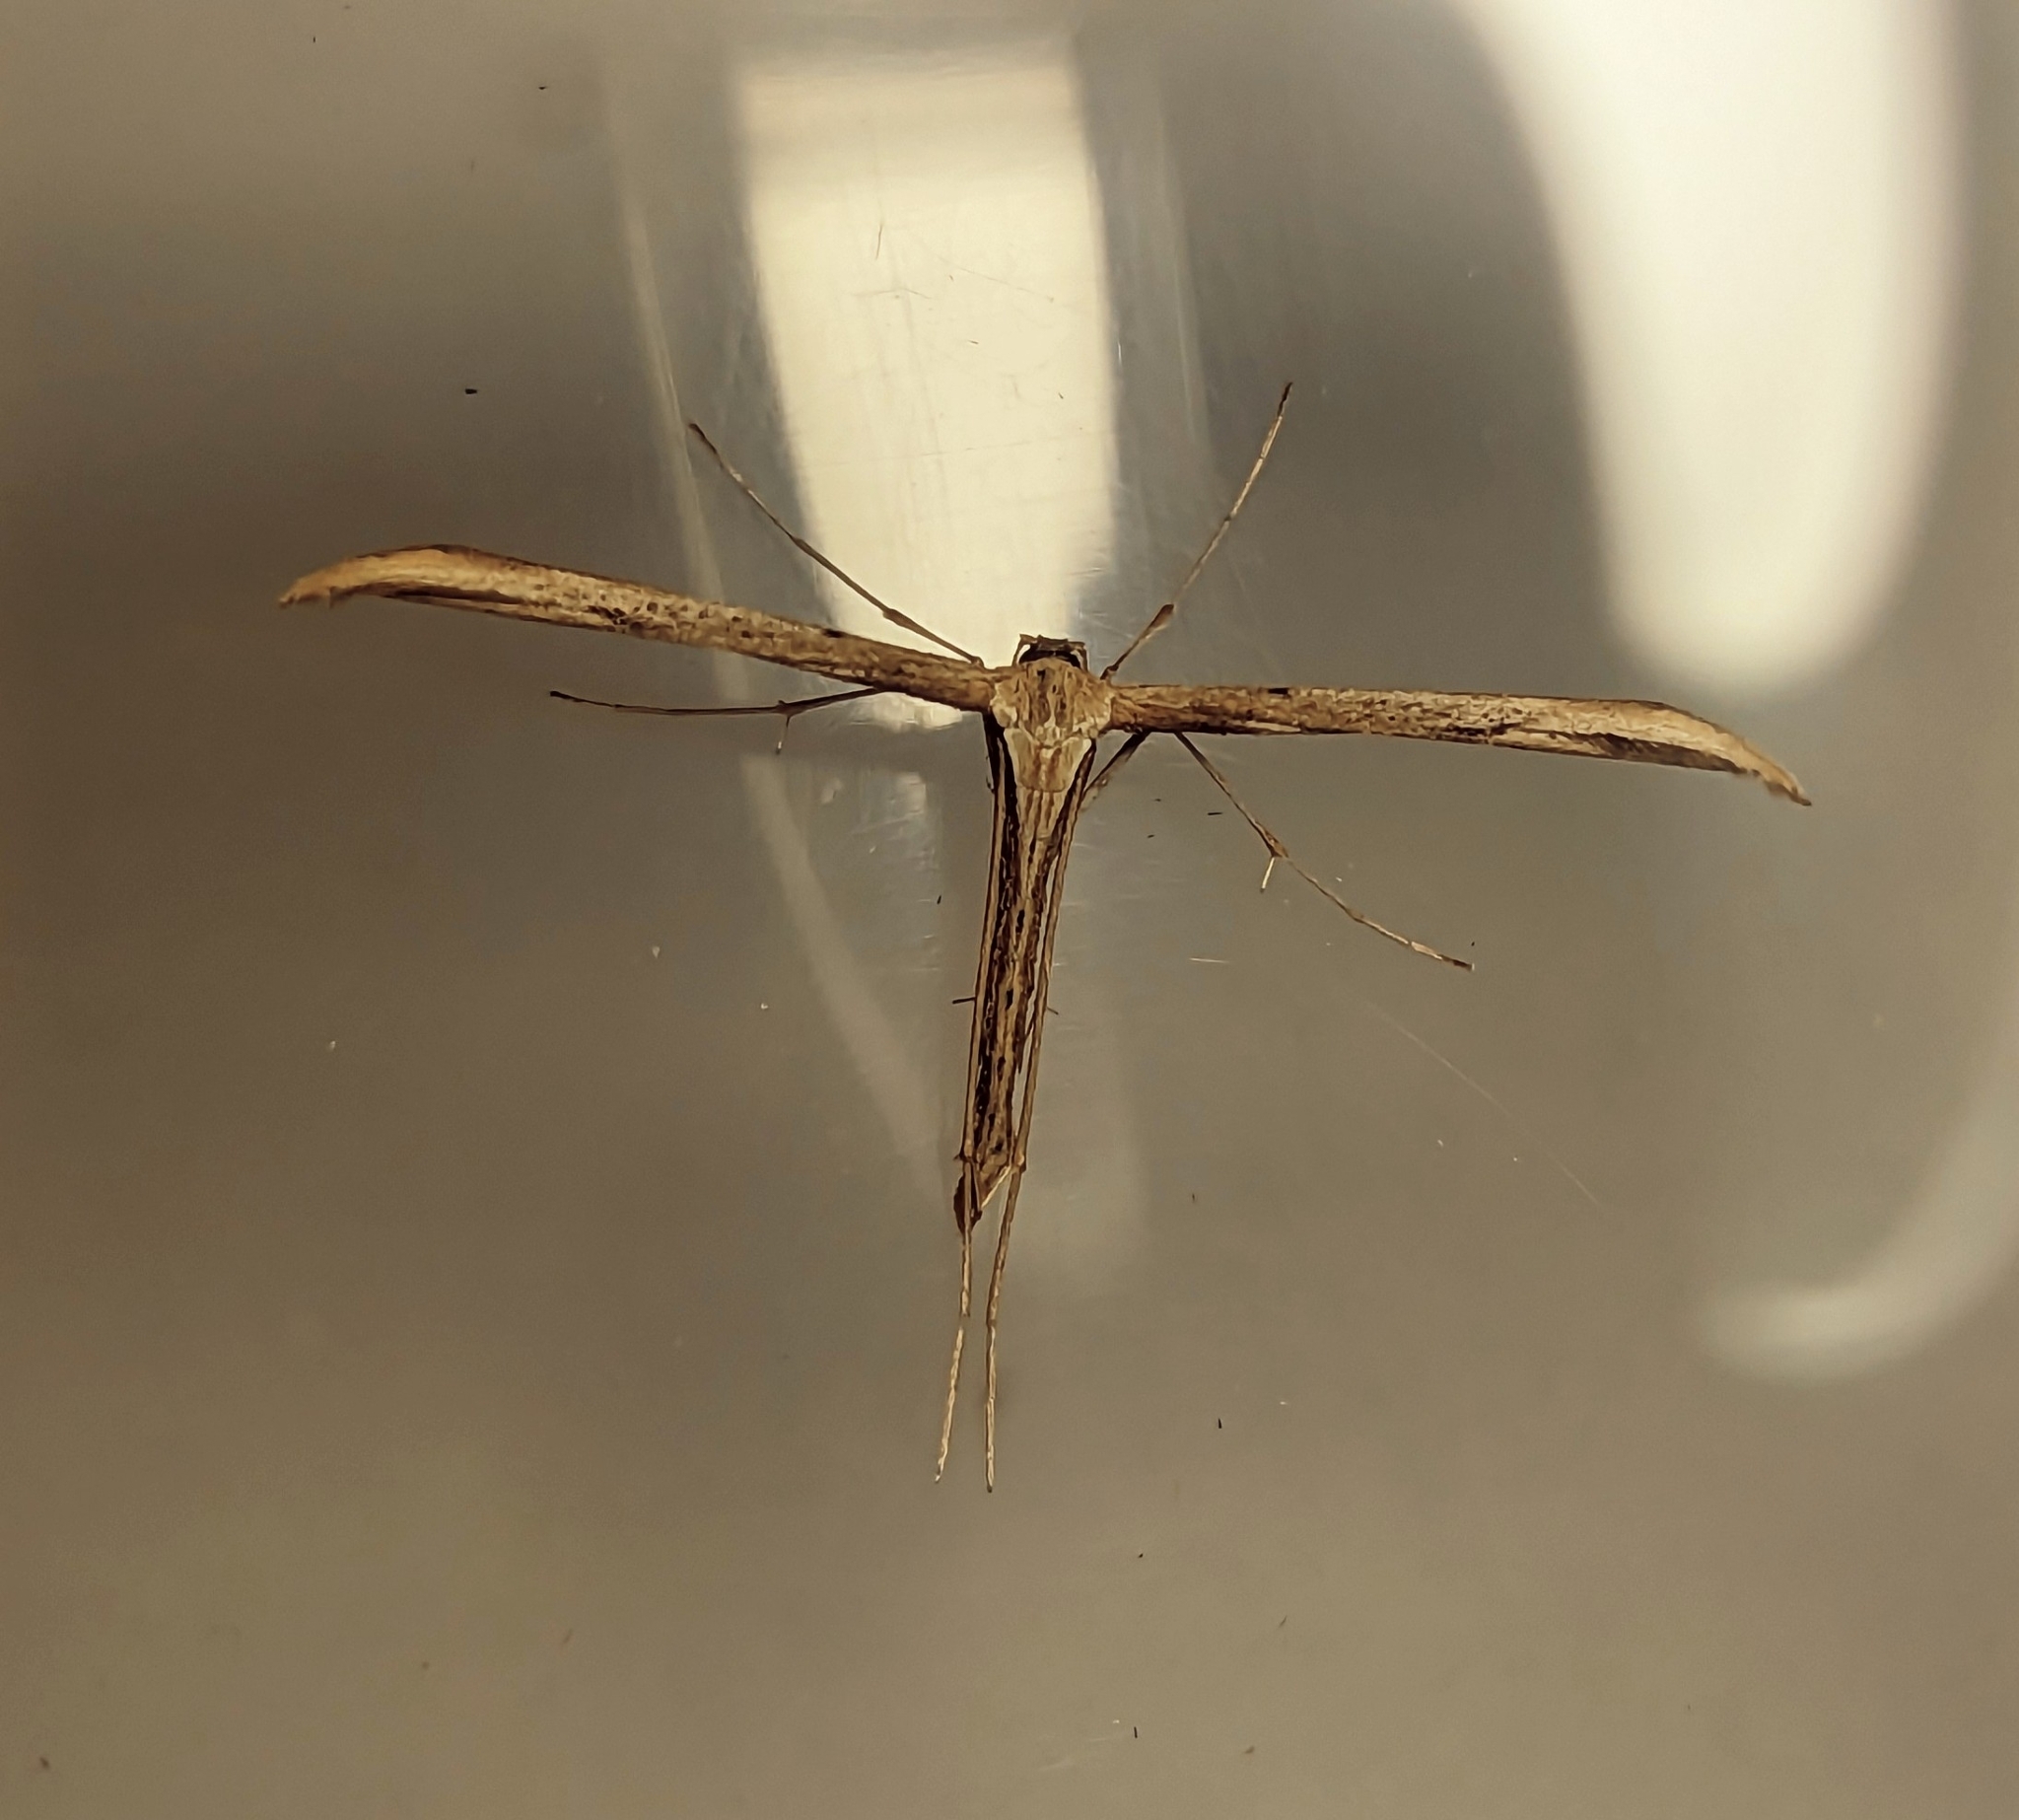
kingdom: Animalia
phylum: Arthropoda
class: Insecta
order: Lepidoptera
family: Pterophoridae
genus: Emmelina
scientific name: Emmelina monodactyla
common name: Common plume
